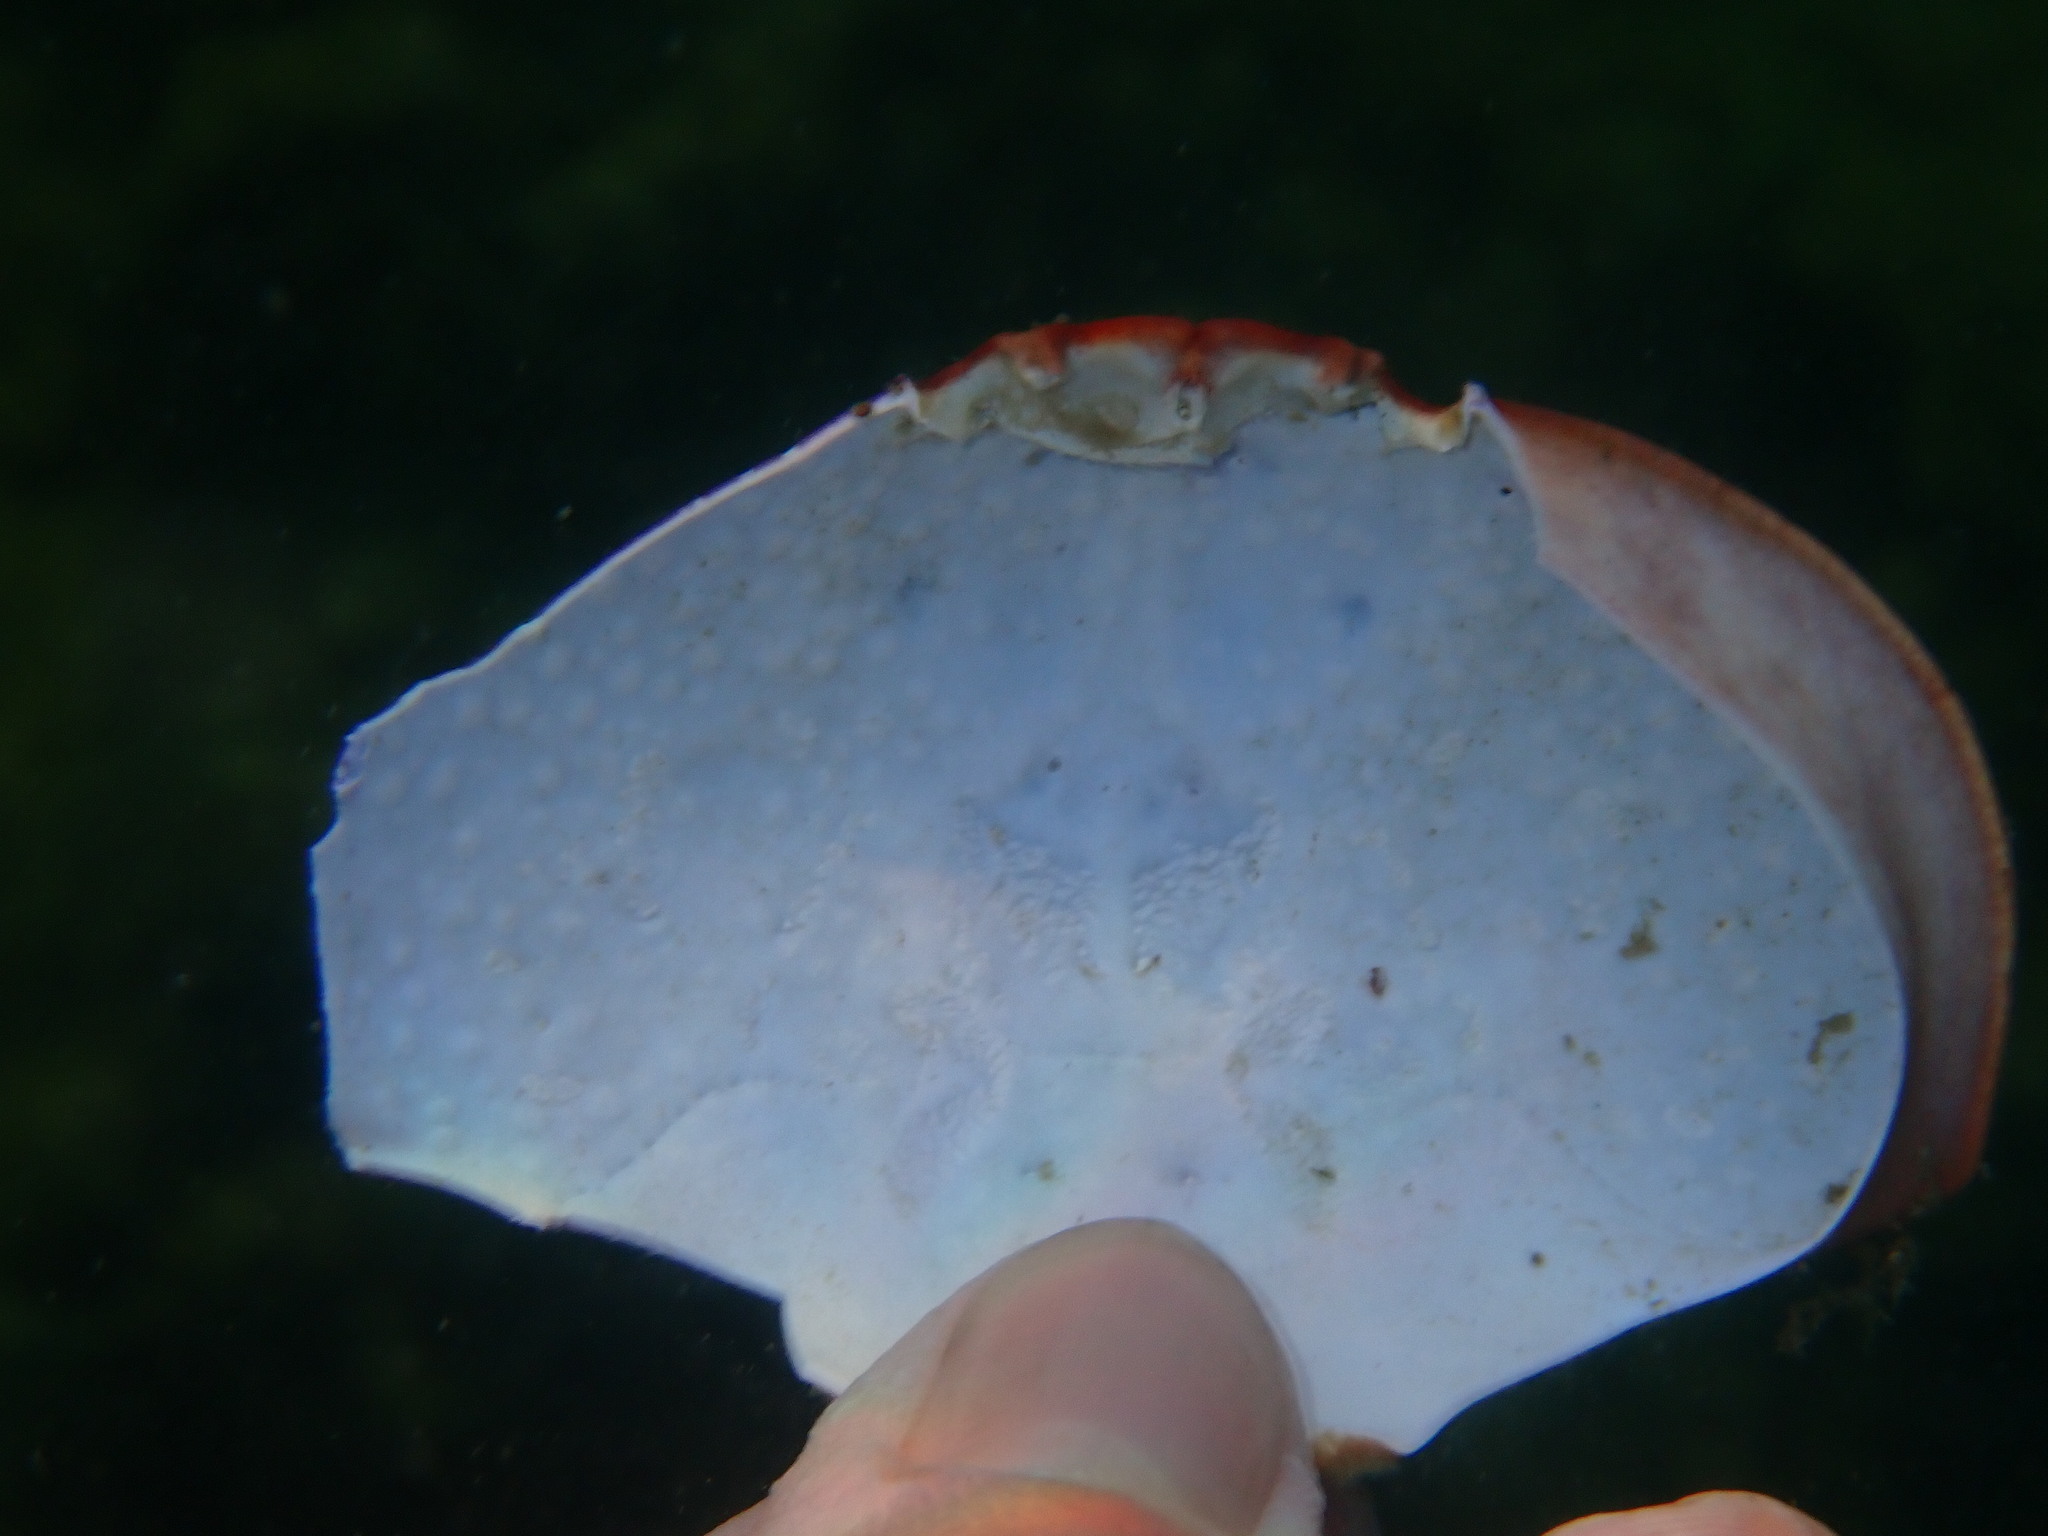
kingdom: Animalia
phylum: Arthropoda
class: Malacostraca
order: Decapoda
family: Xanthidae
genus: Atergatis
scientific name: Atergatis integerrimus
